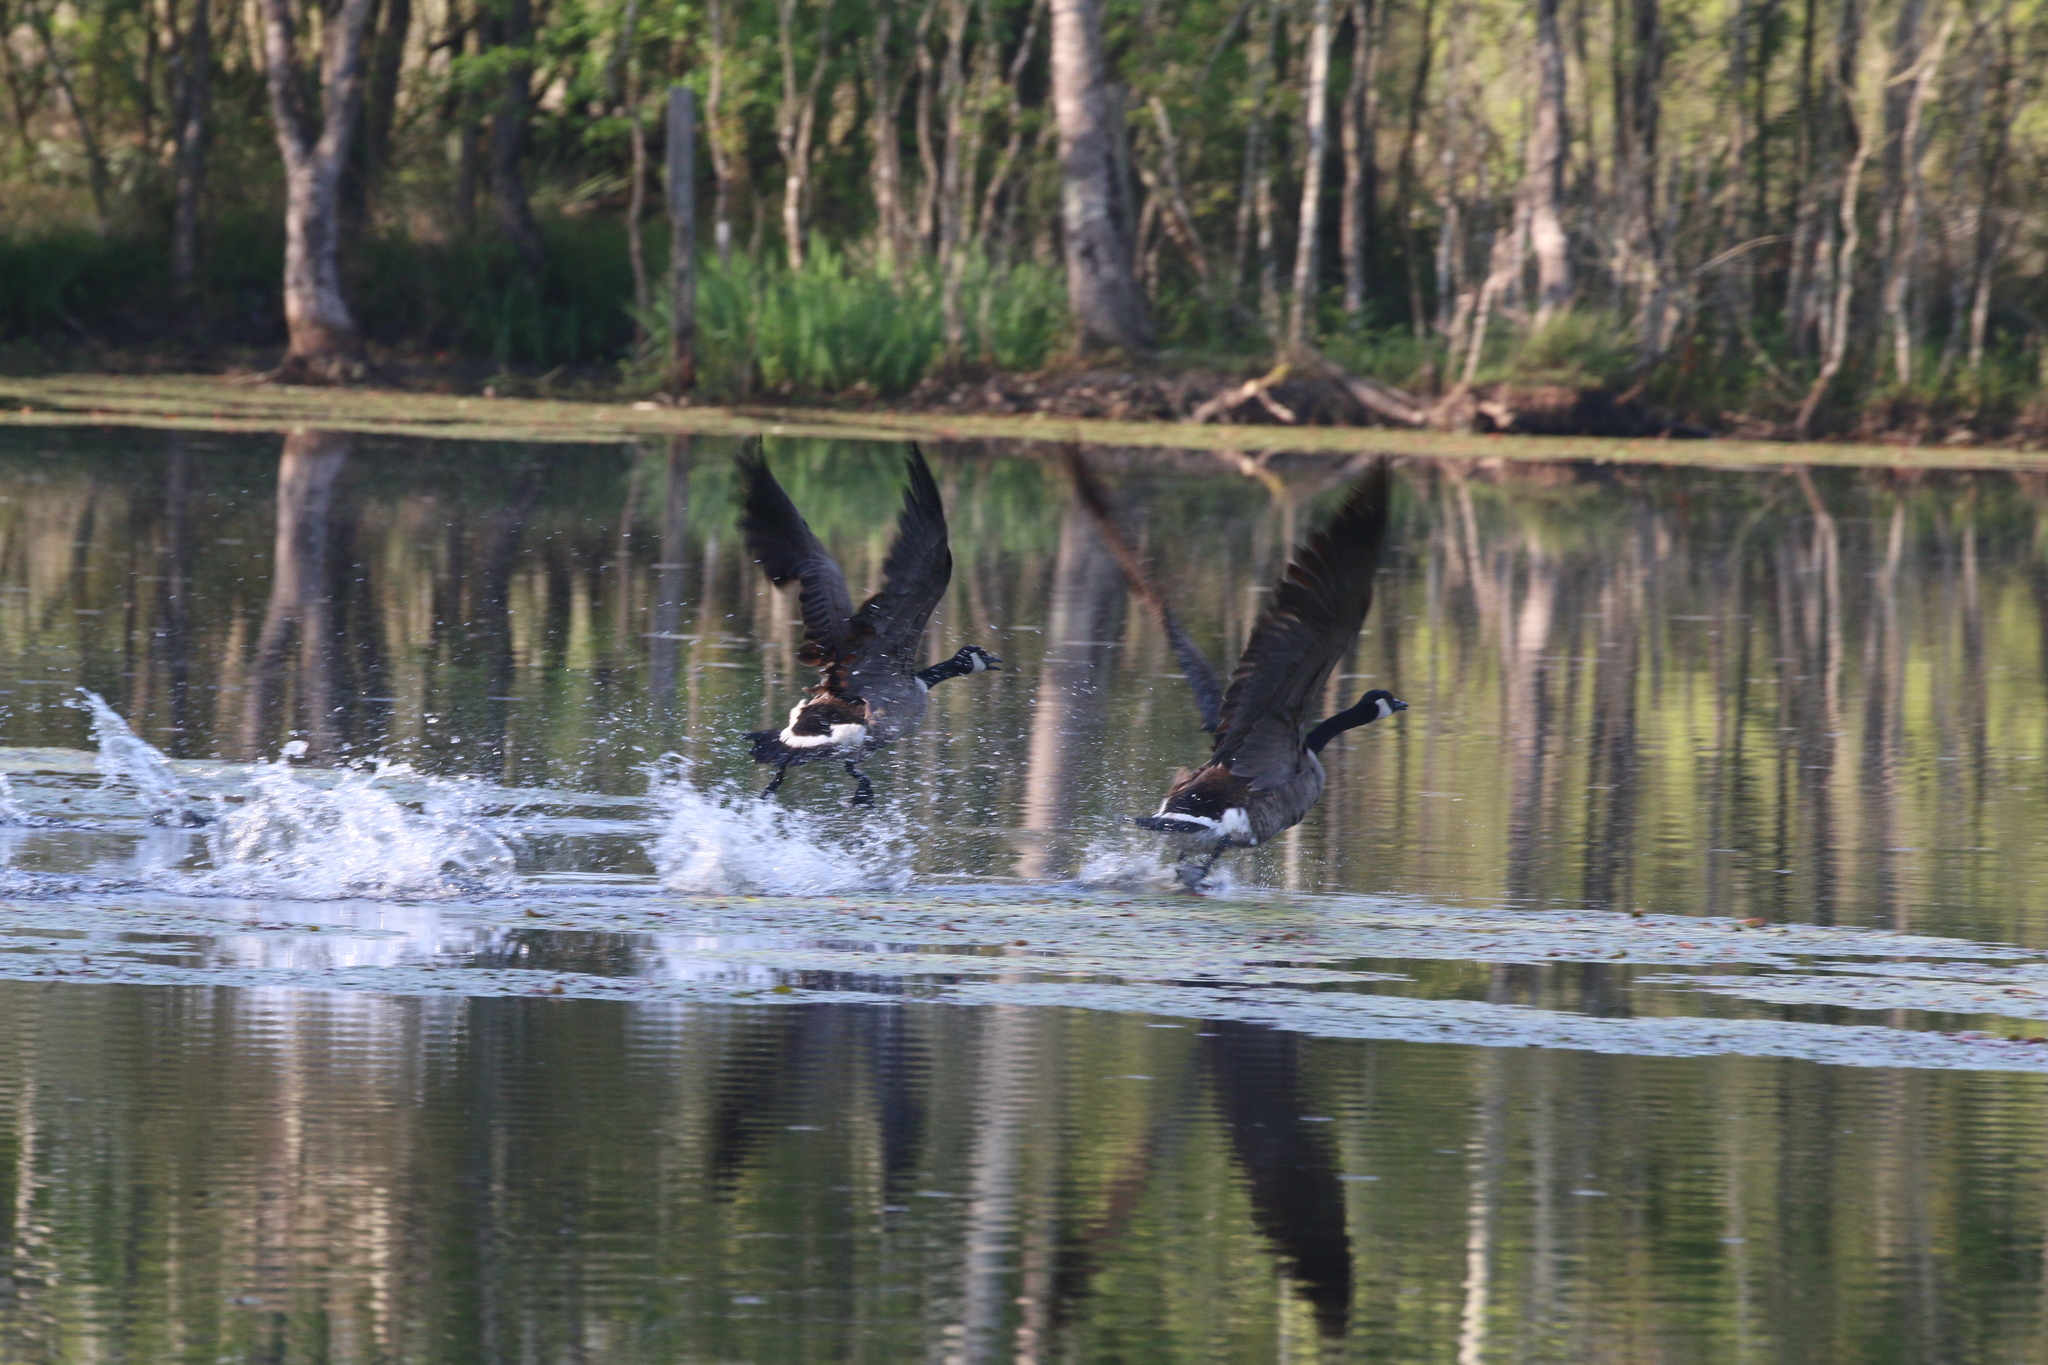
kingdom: Animalia
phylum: Chordata
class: Aves
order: Anseriformes
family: Anatidae
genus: Branta
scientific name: Branta canadensis
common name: Canada goose
